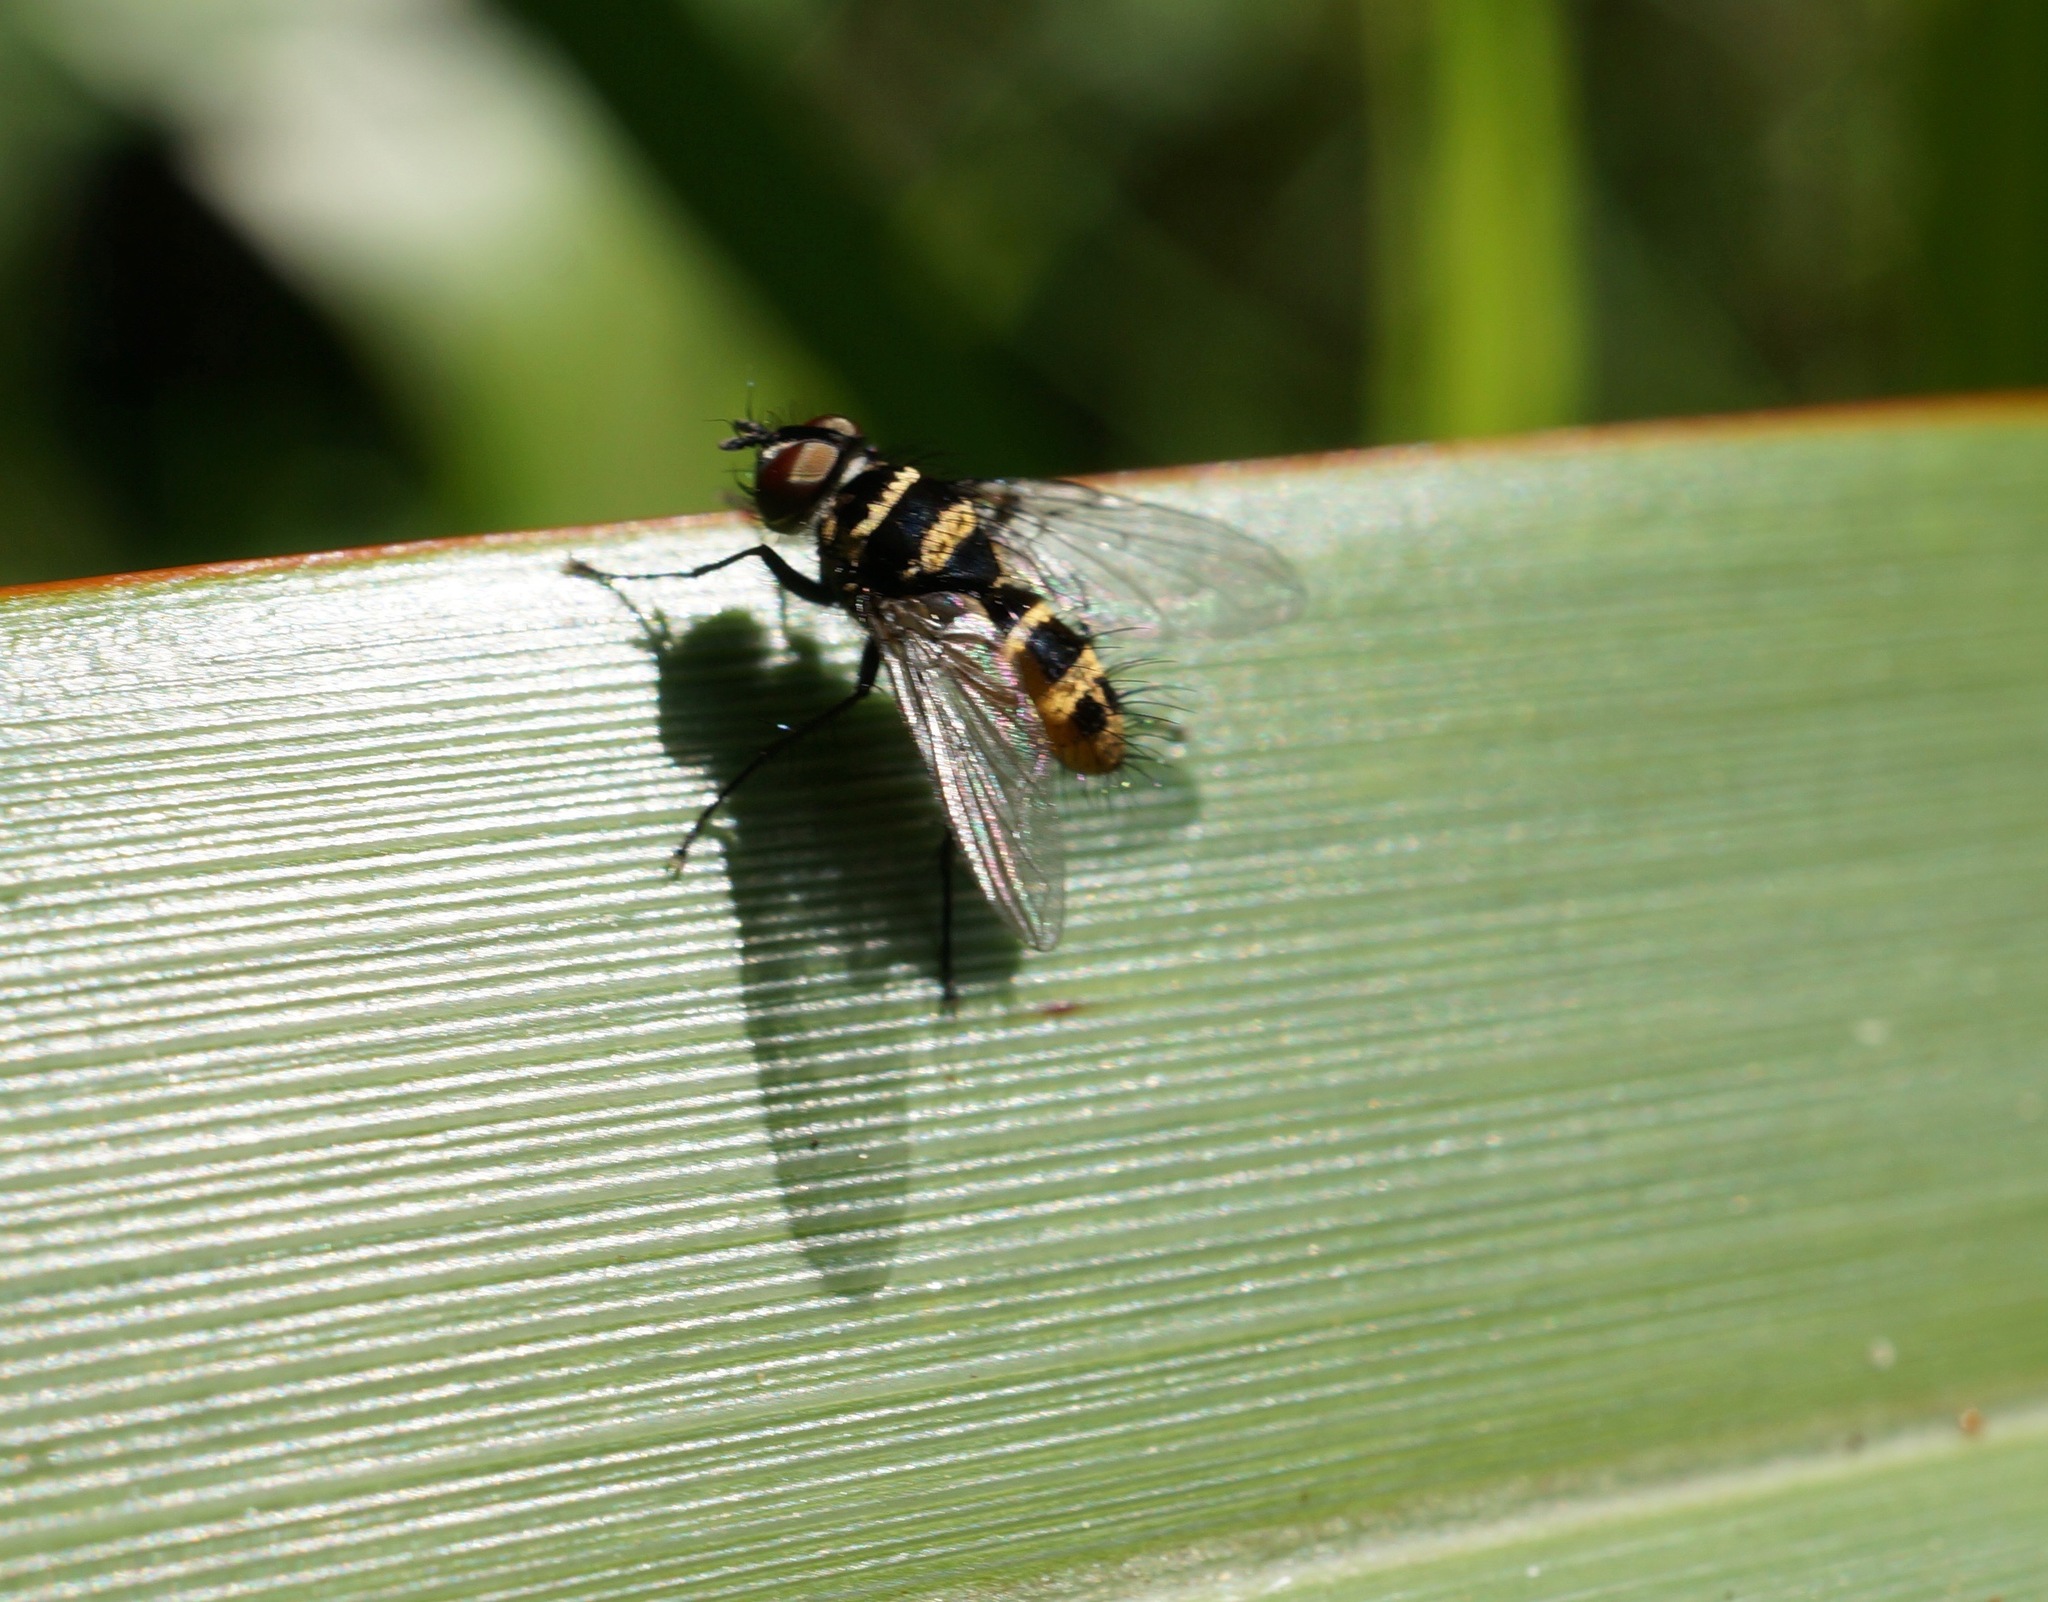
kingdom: Animalia
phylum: Arthropoda
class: Insecta
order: Diptera
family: Tachinidae
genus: Trigonospila
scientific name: Trigonospila brevifacies
